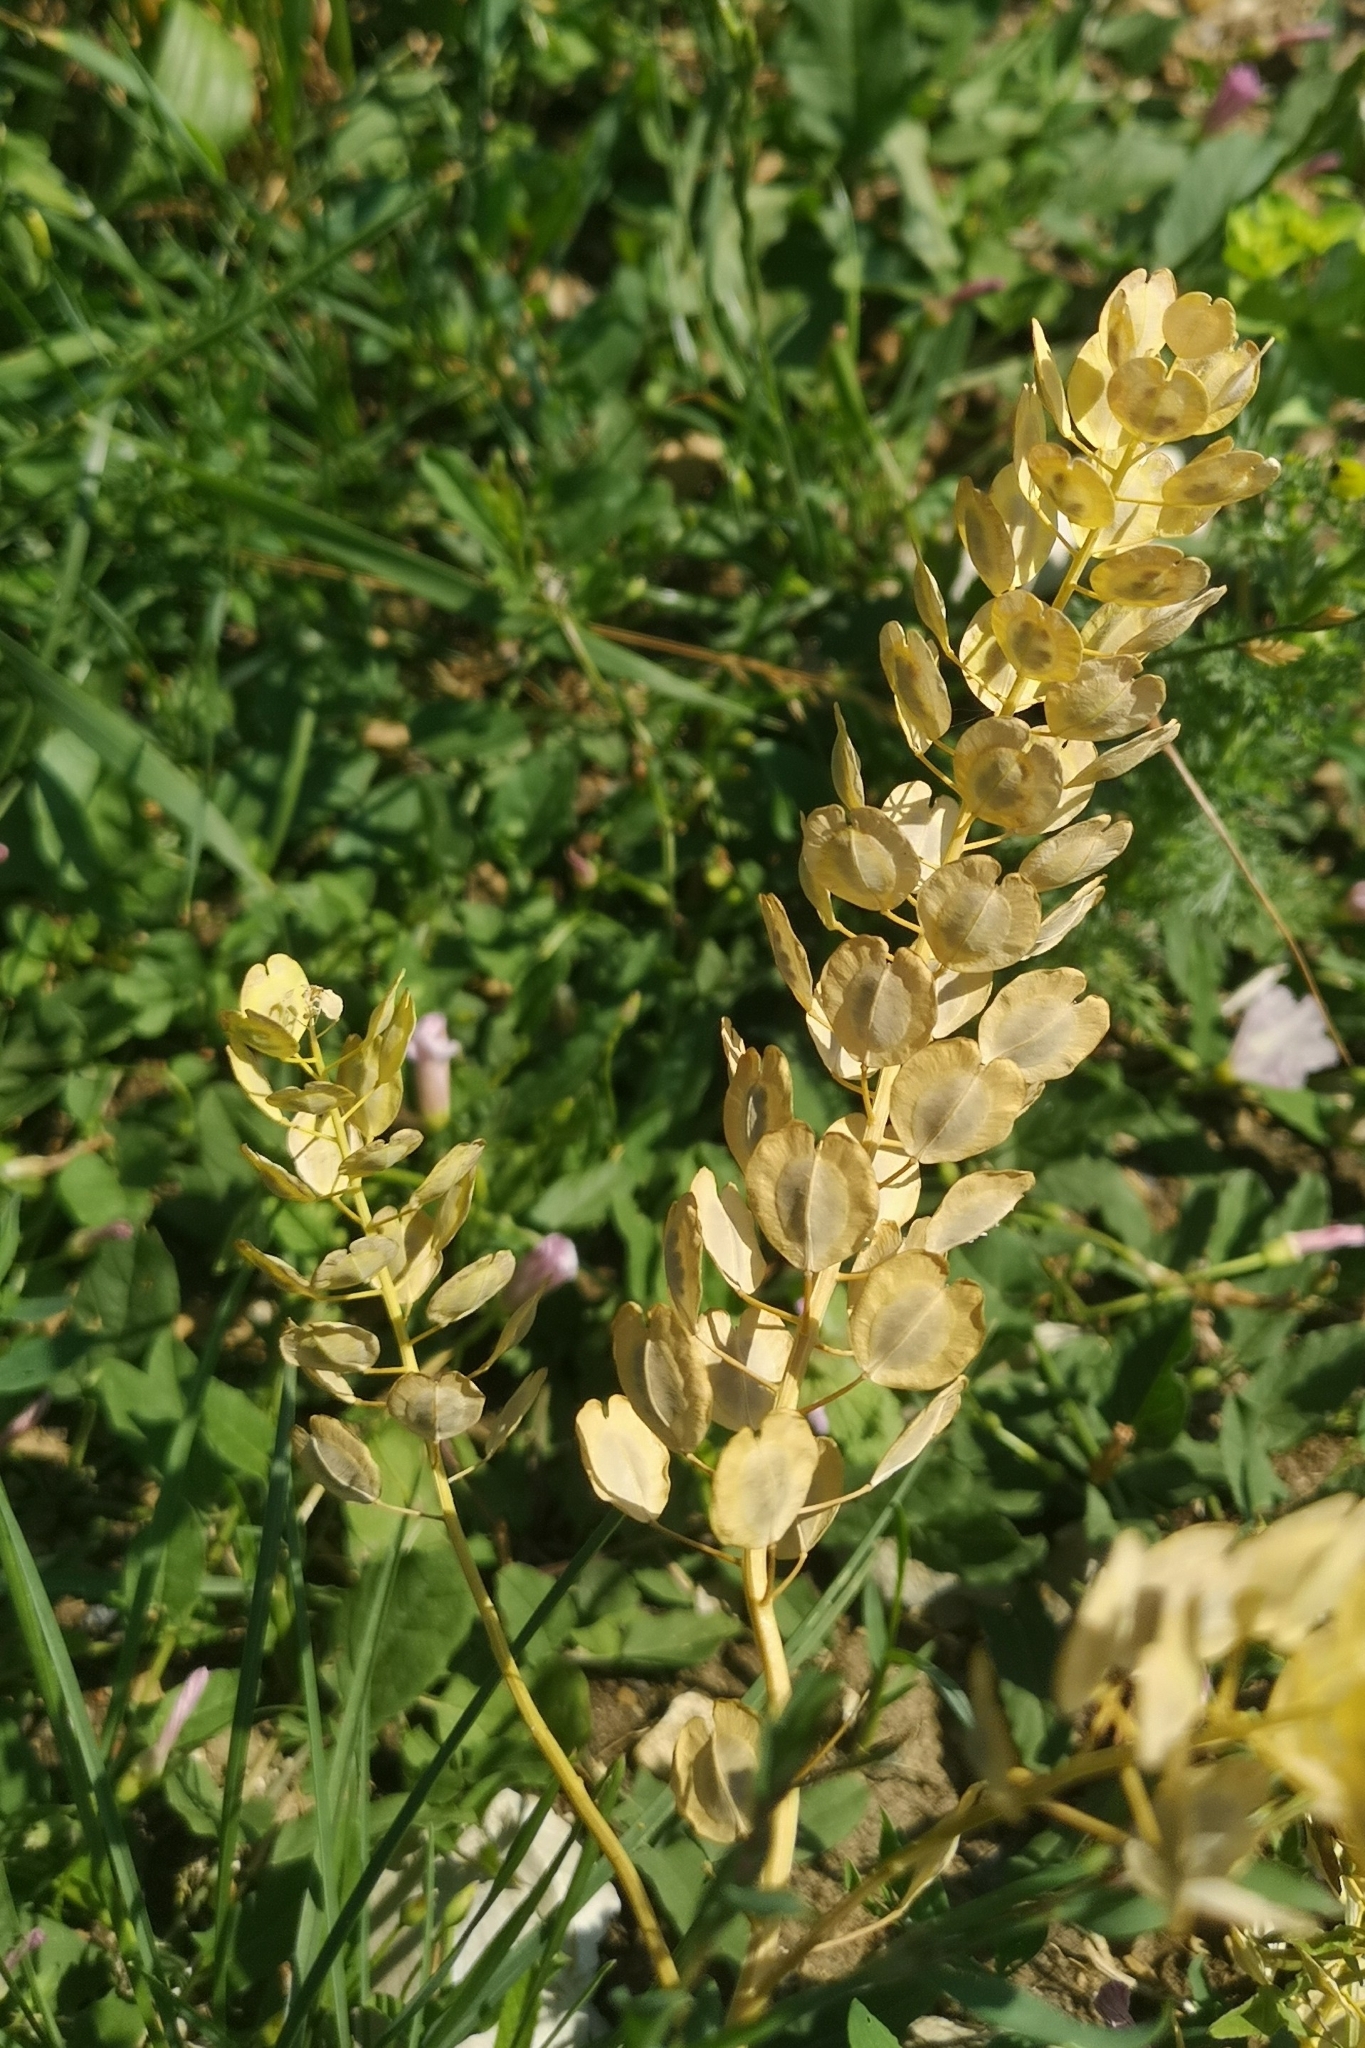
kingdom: Plantae
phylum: Tracheophyta
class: Magnoliopsida
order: Brassicales
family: Brassicaceae
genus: Thlaspi
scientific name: Thlaspi arvense
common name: Field pennycress
